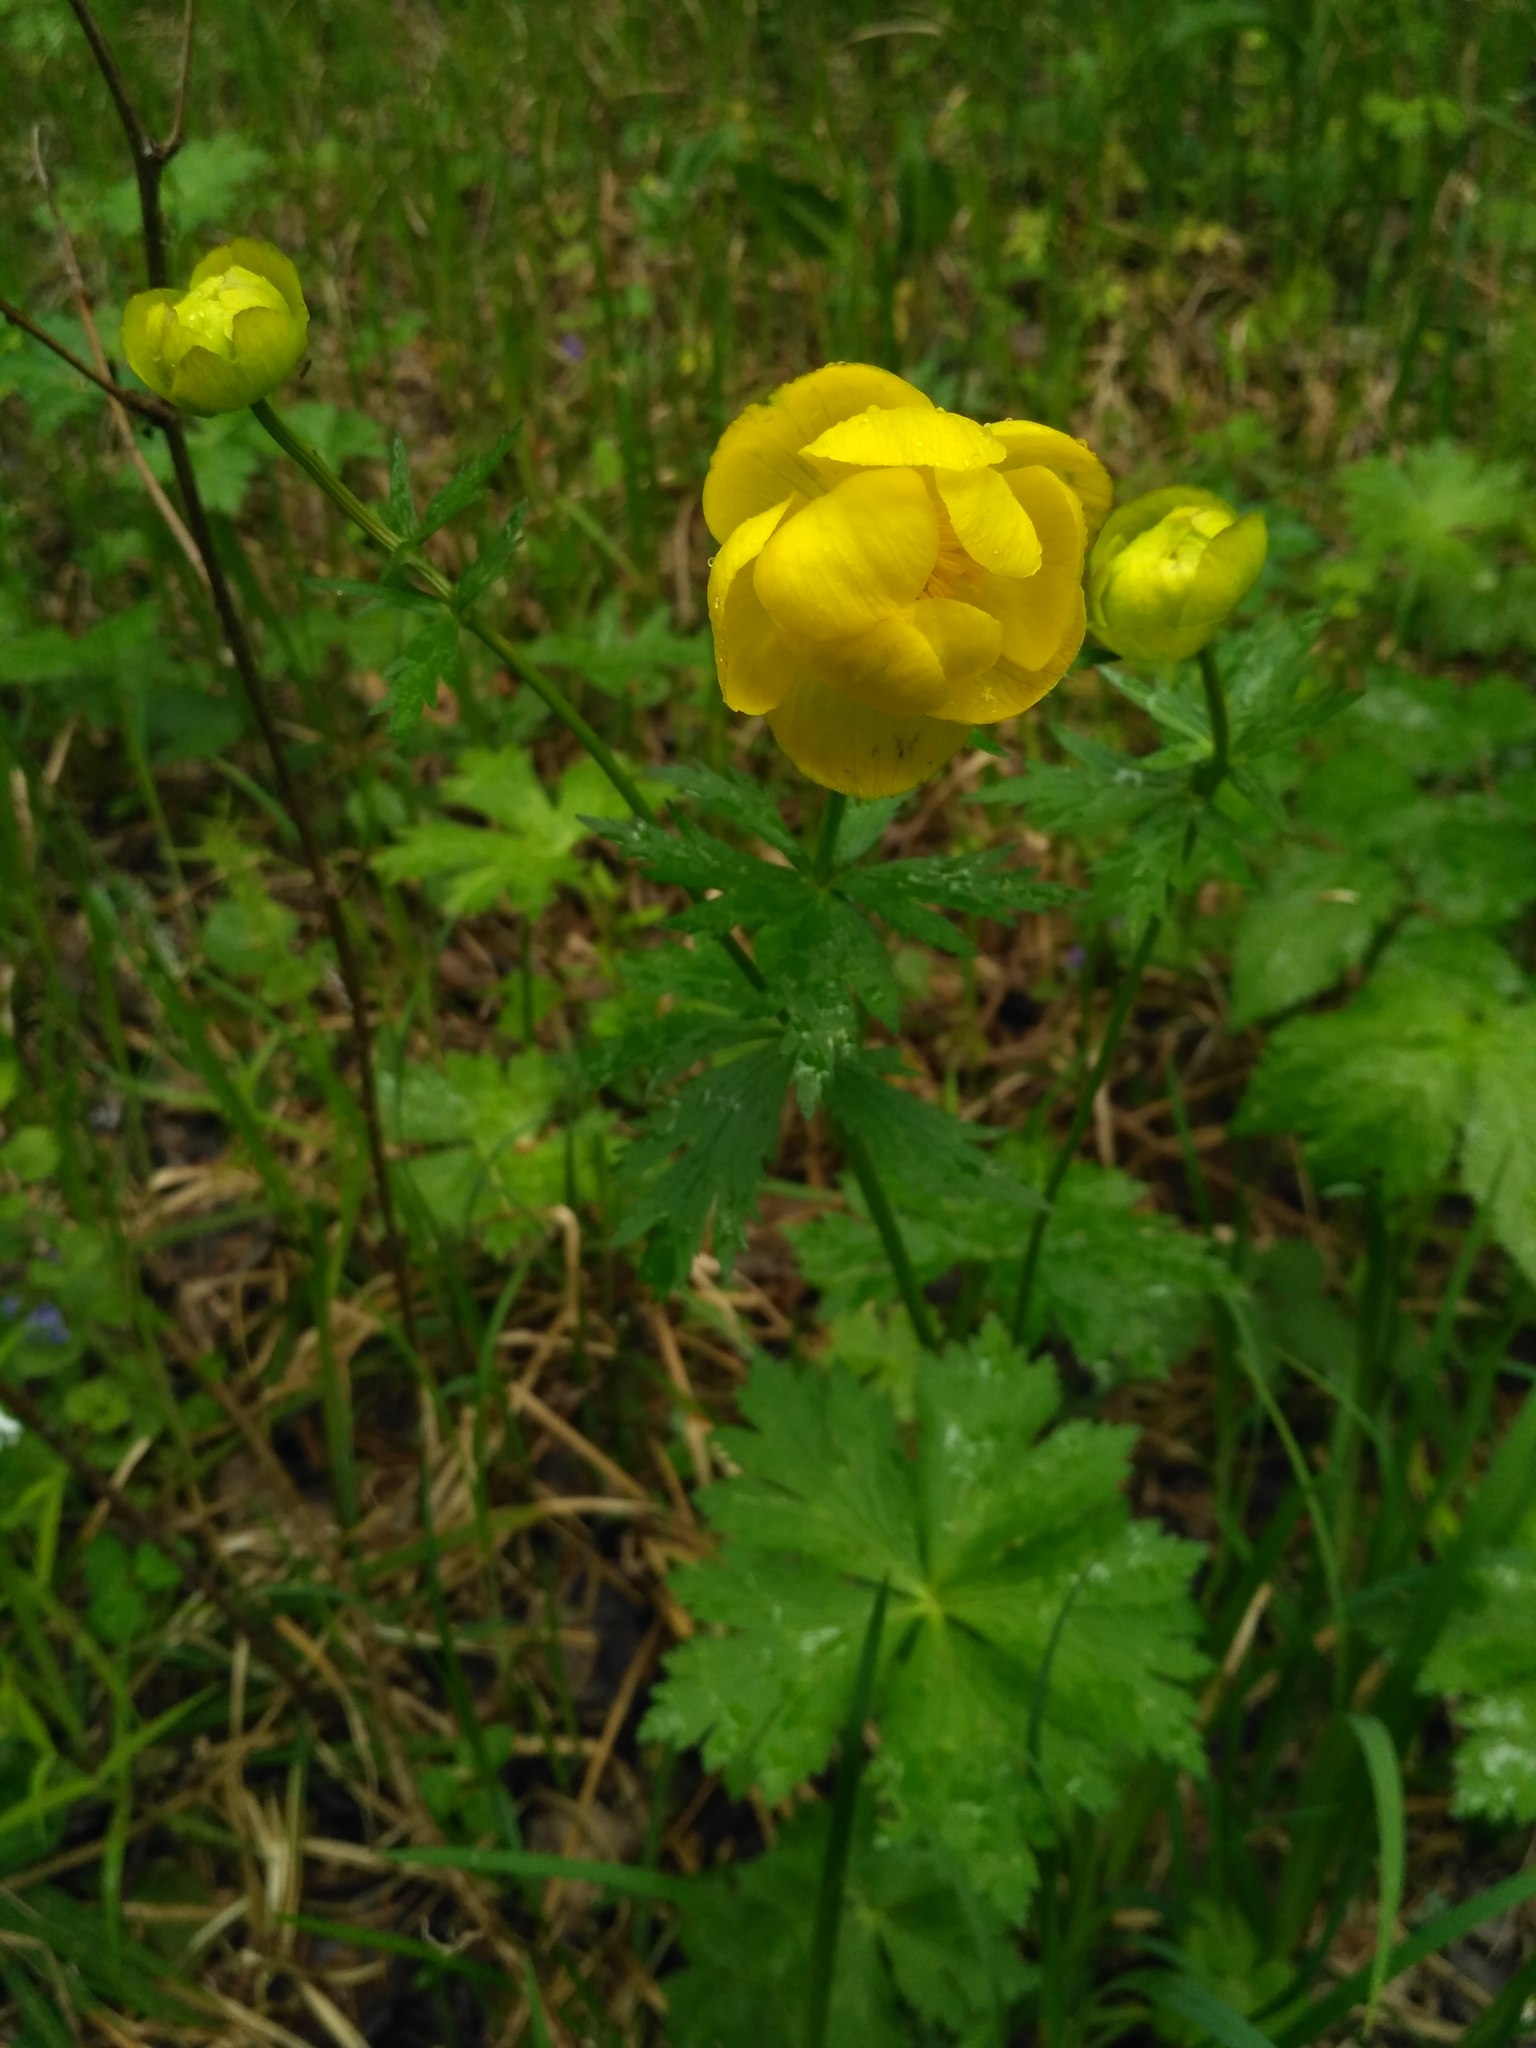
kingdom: Plantae
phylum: Tracheophyta
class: Magnoliopsida
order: Ranunculales
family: Ranunculaceae
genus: Trollius
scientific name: Trollius europaeus
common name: European globeflower
